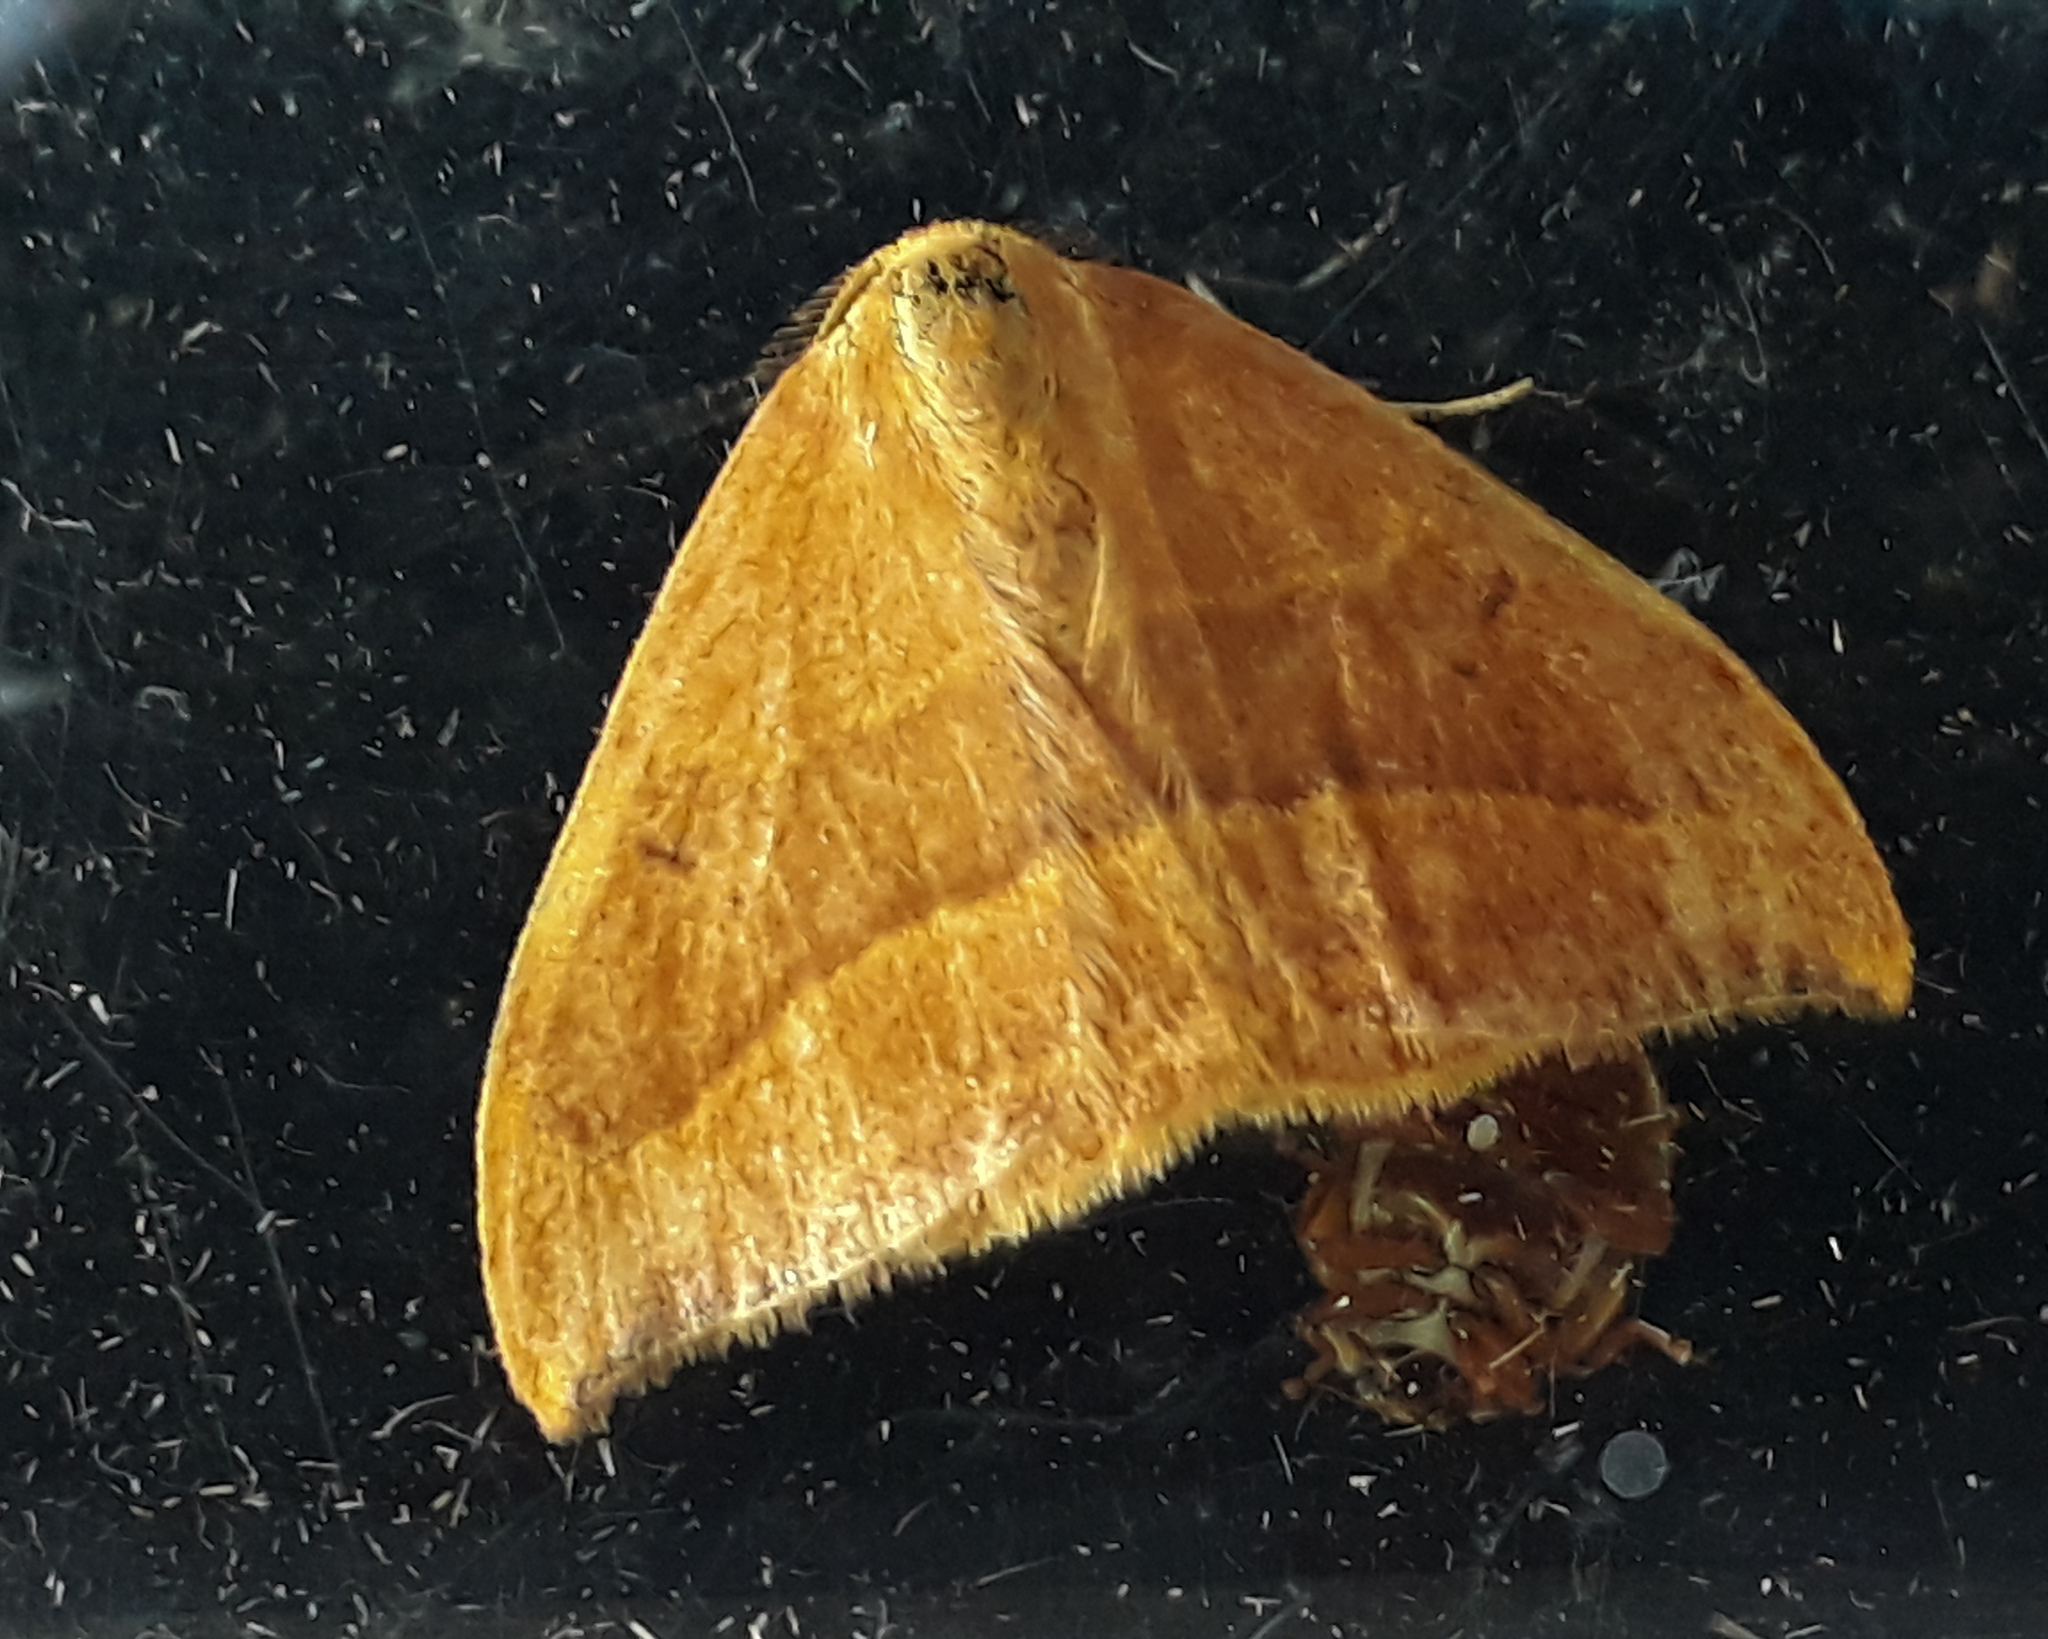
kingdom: Animalia
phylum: Arthropoda
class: Insecta
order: Lepidoptera
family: Drepanidae
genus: Watsonalla
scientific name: Watsonalla cultraria
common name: Barred hook-tip
